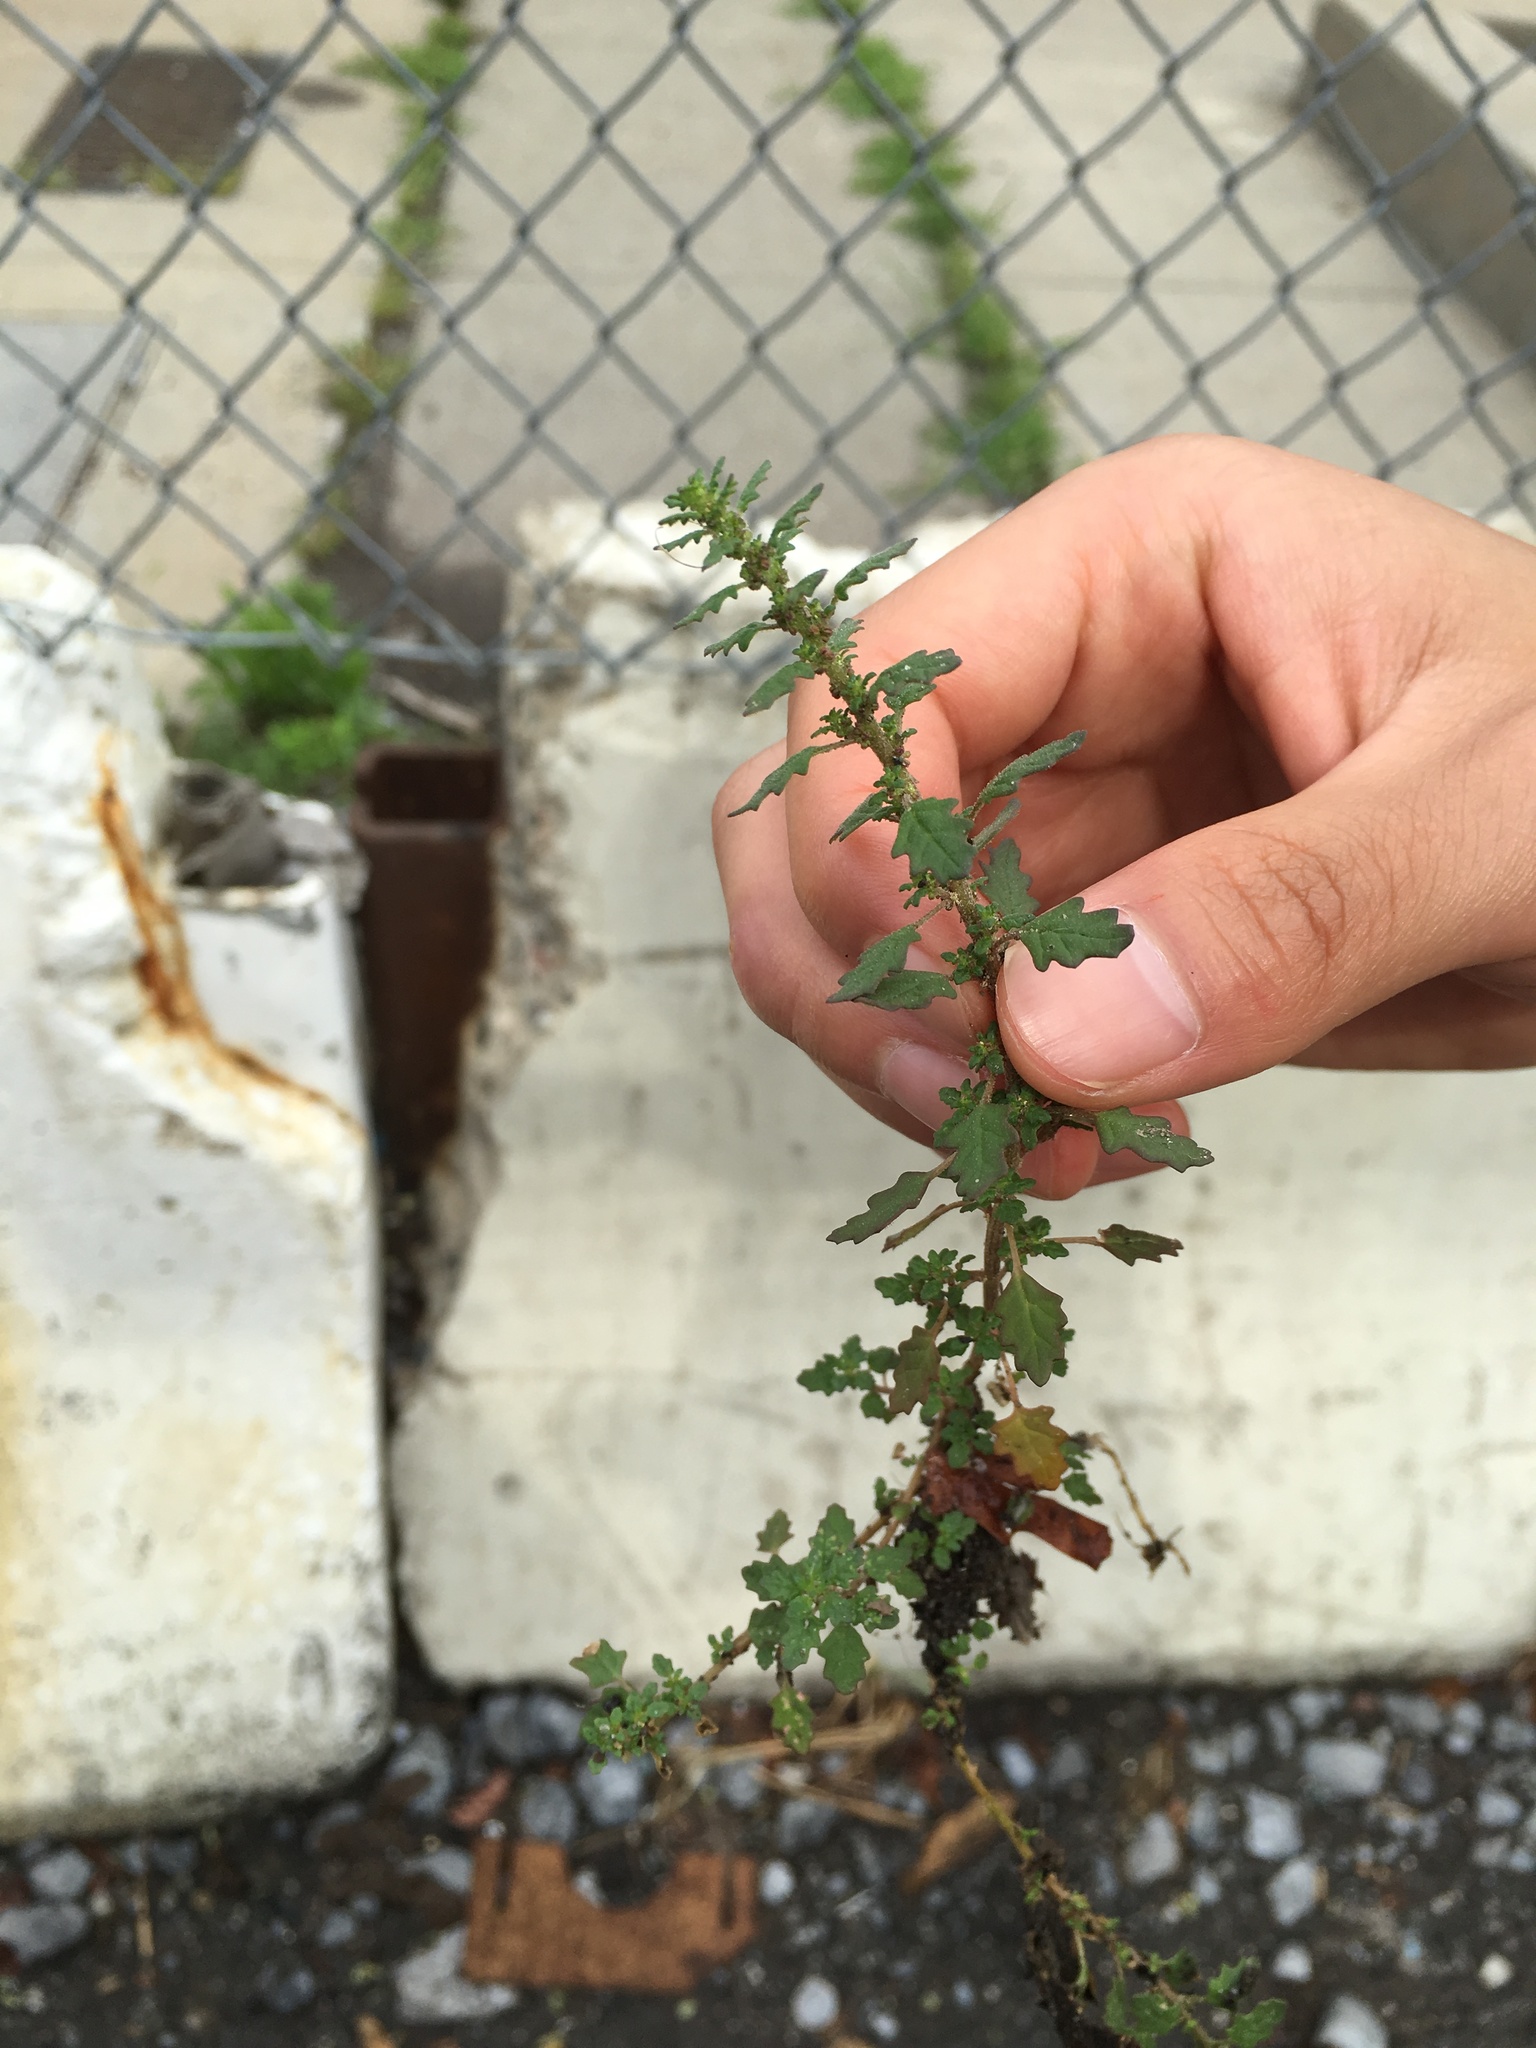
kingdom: Plantae
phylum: Tracheophyta
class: Magnoliopsida
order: Caryophyllales
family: Amaranthaceae
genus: Dysphania
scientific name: Dysphania pumilio
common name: Clammy goosefoot
